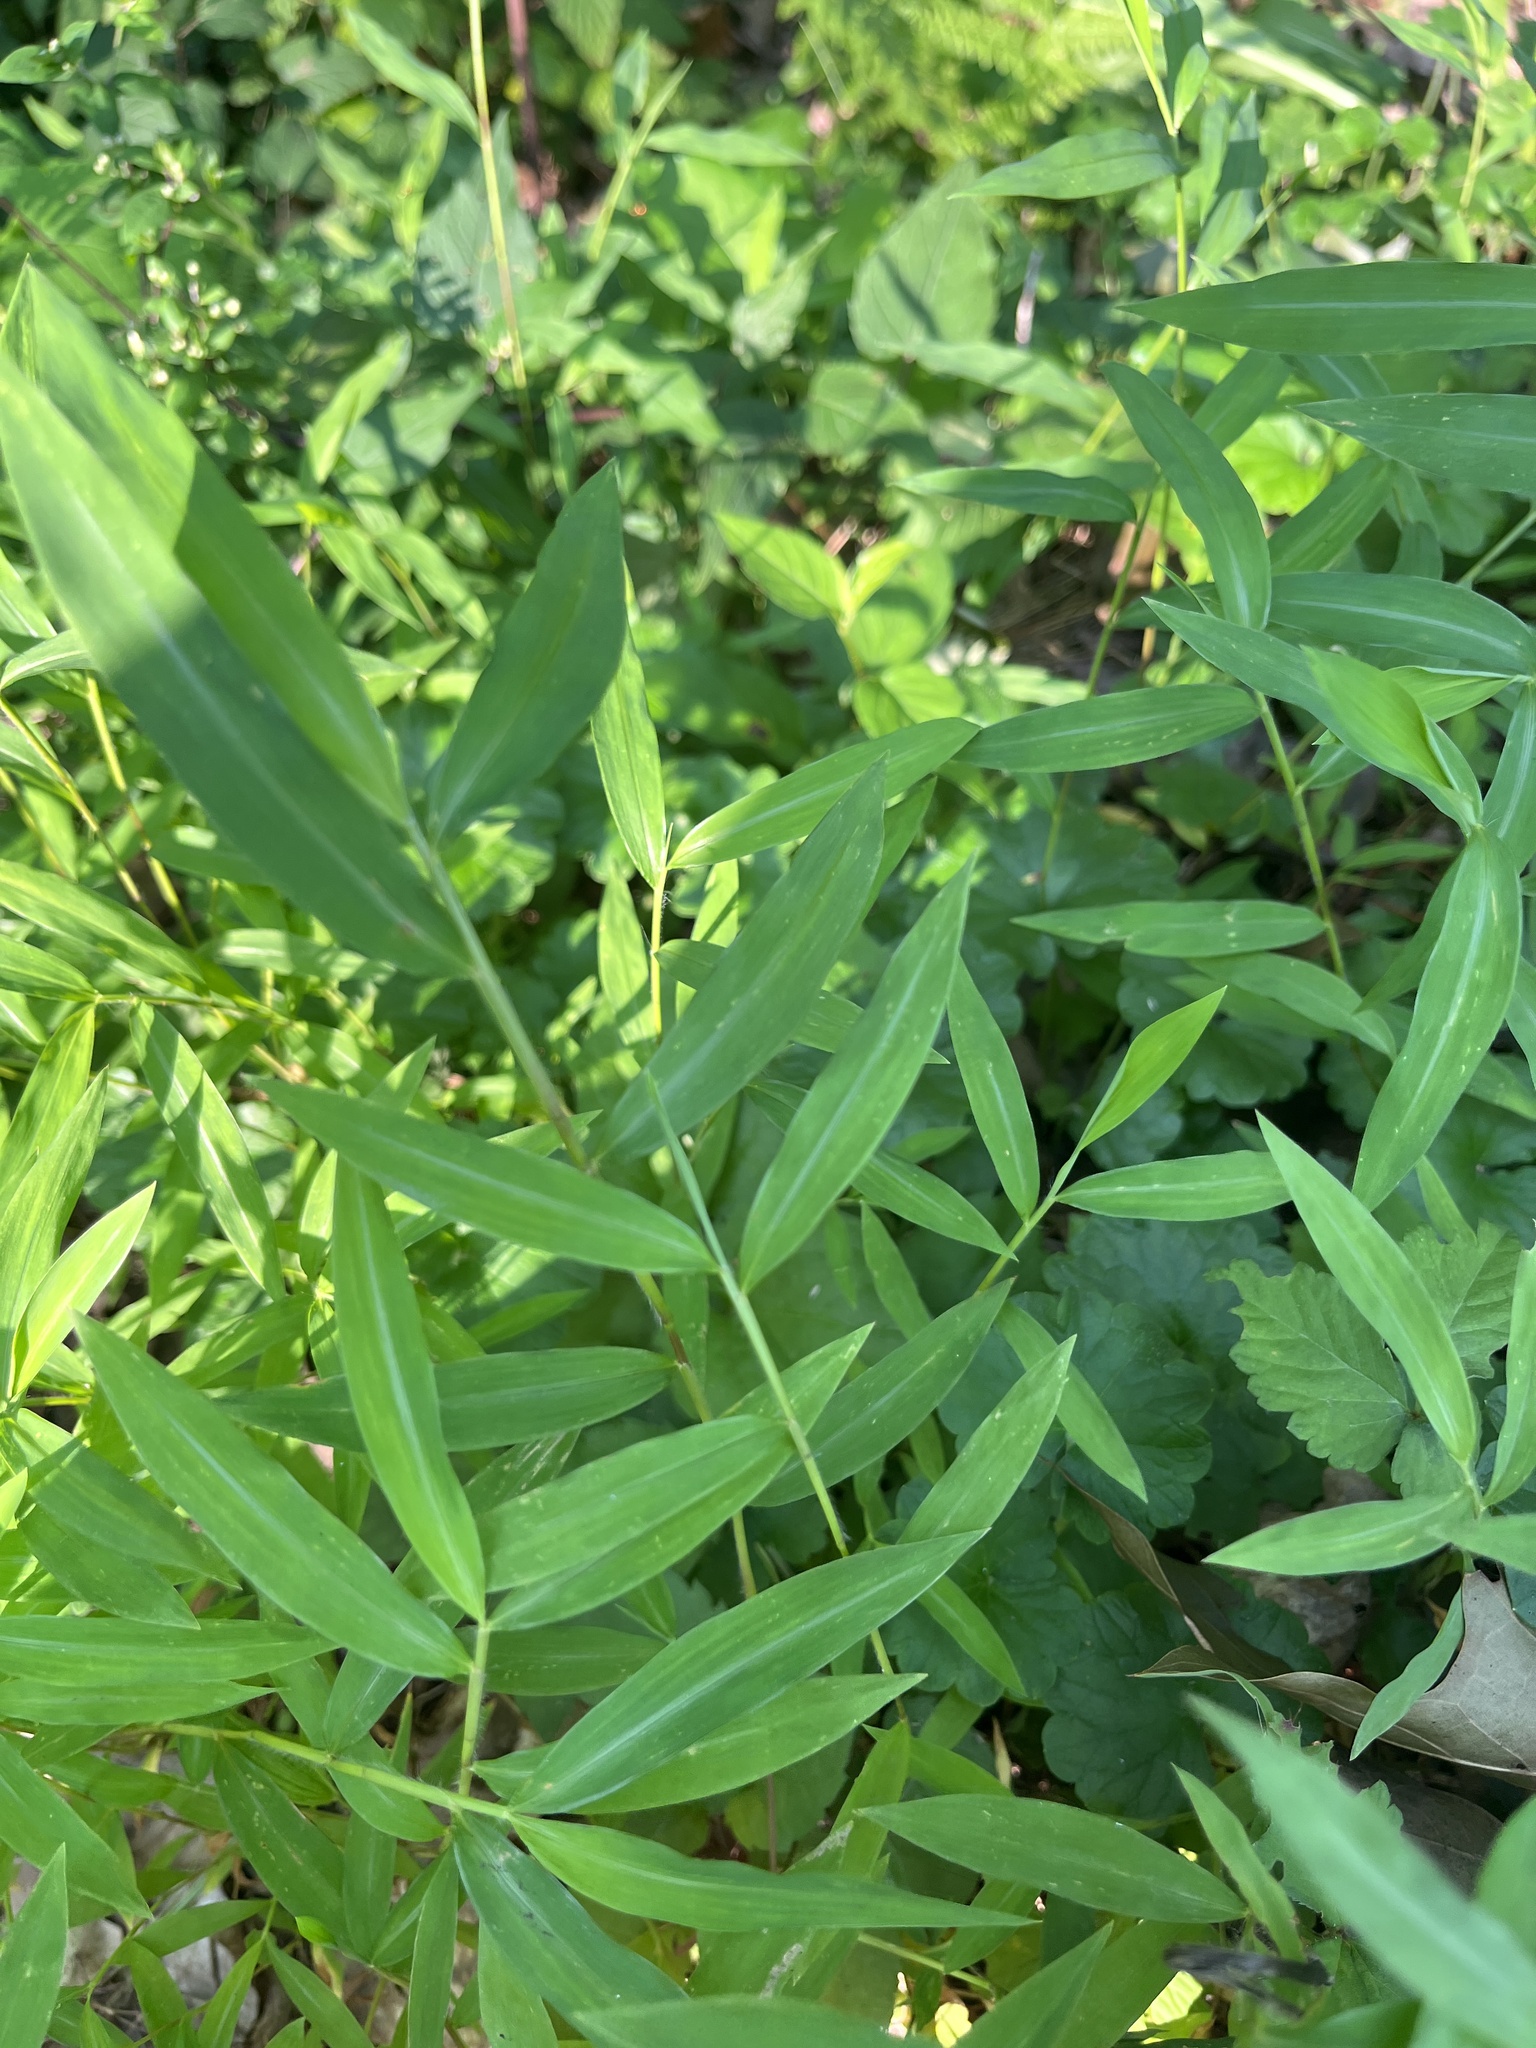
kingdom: Plantae
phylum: Tracheophyta
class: Liliopsida
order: Poales
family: Poaceae
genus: Microstegium
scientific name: Microstegium vimineum
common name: Japanese stiltgrass
